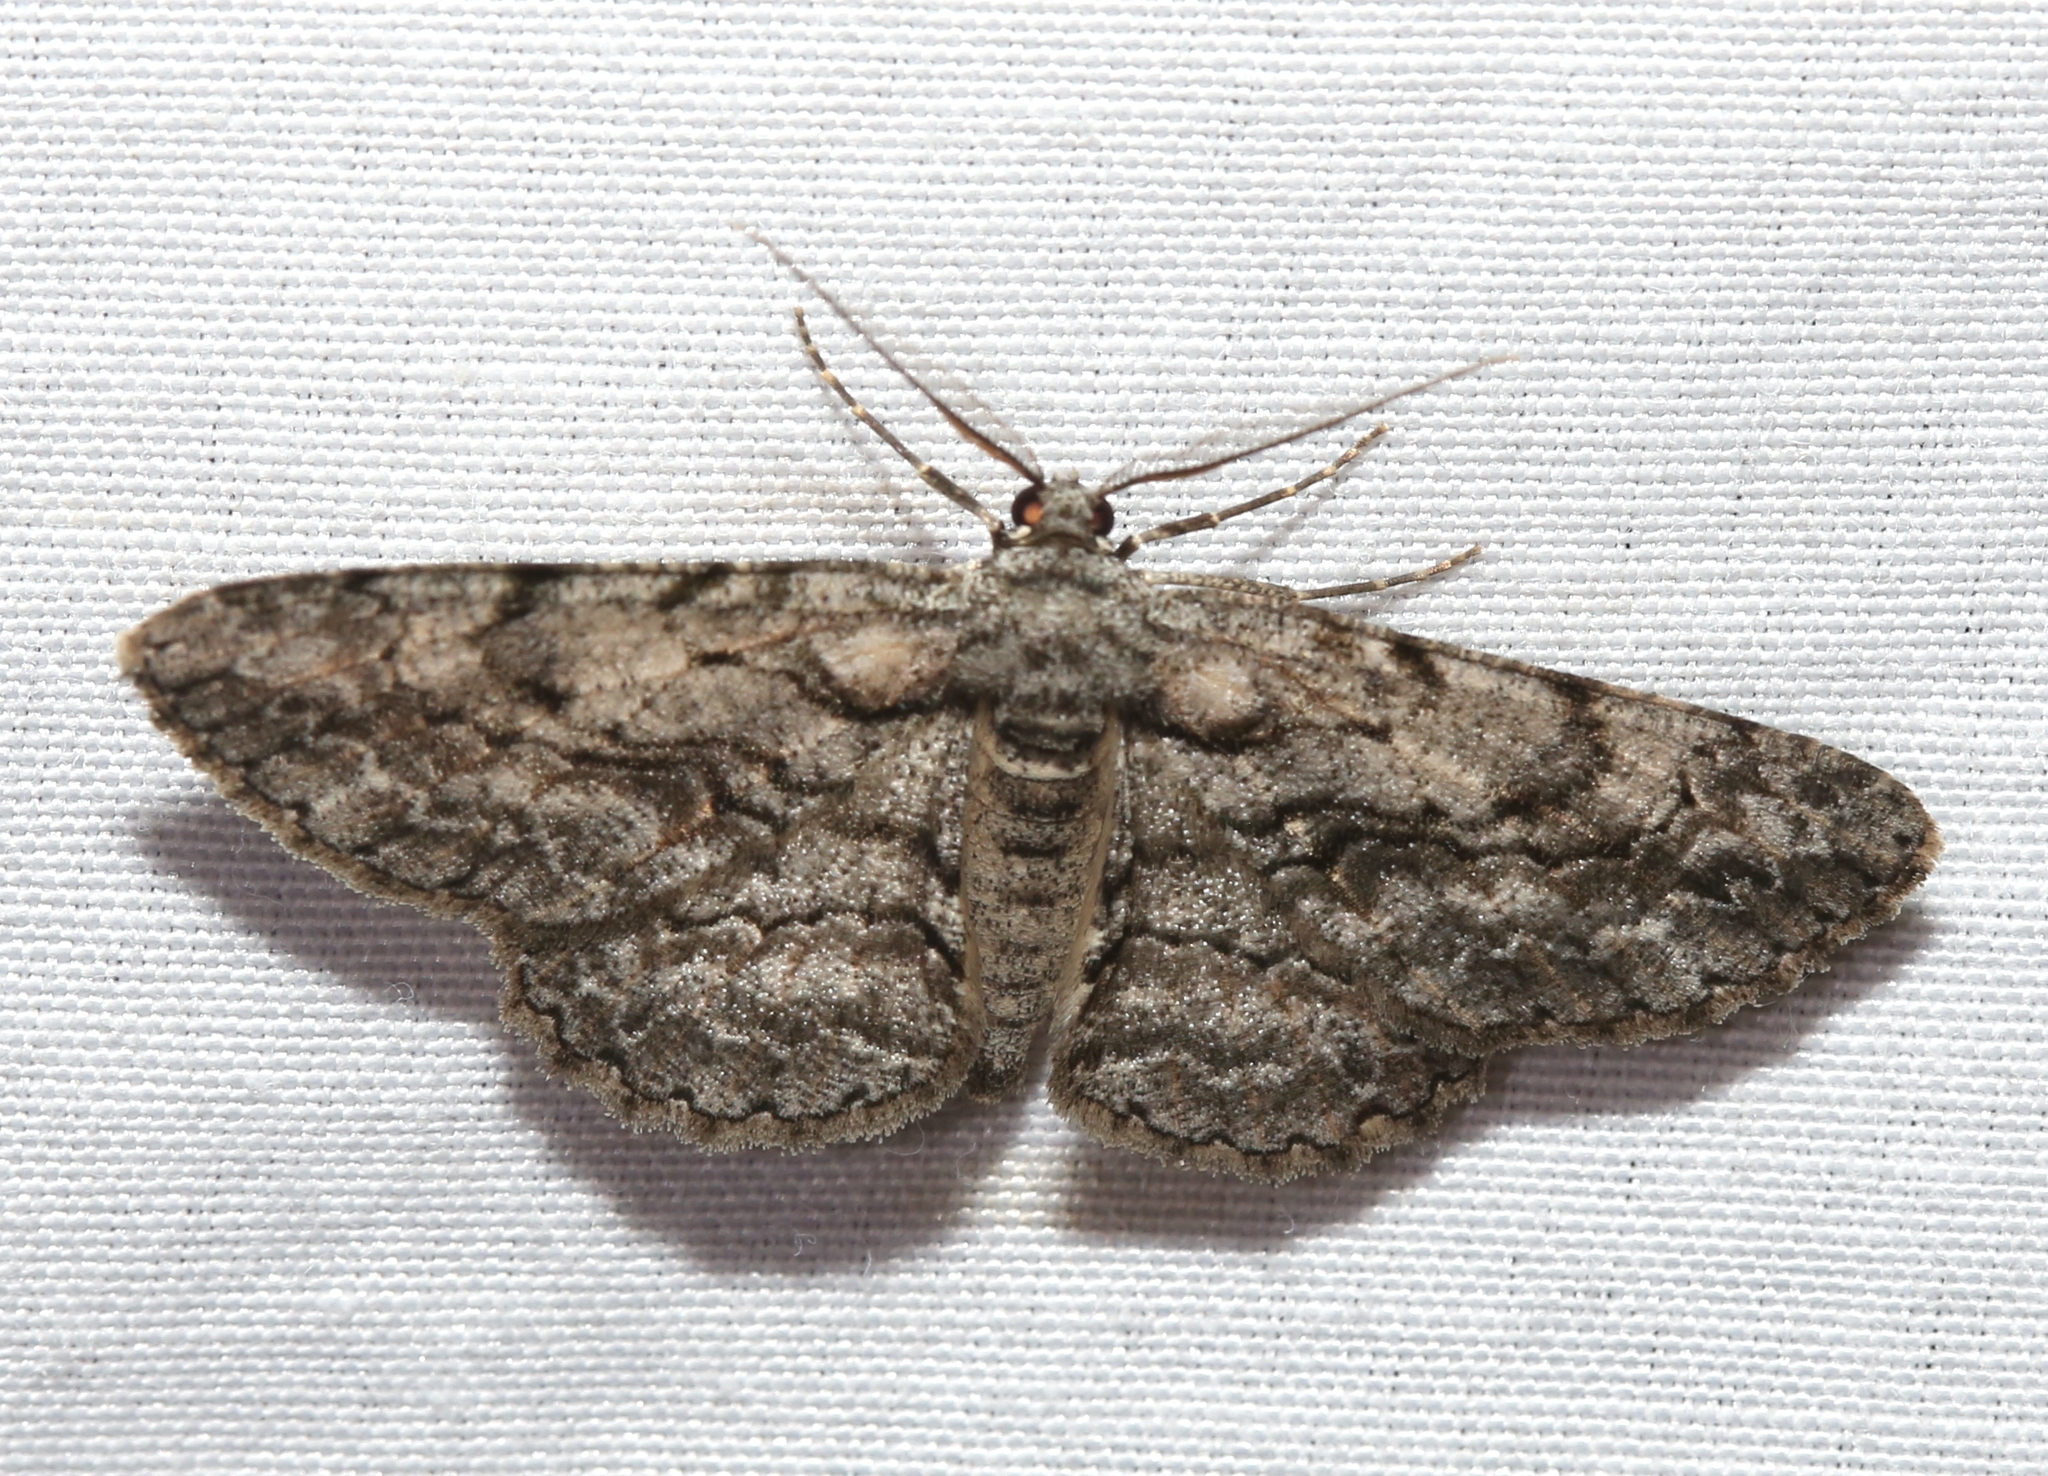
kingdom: Animalia
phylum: Arthropoda
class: Insecta
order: Lepidoptera
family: Geometridae
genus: Anavitrinella
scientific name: Anavitrinella pampinaria
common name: Common gray
